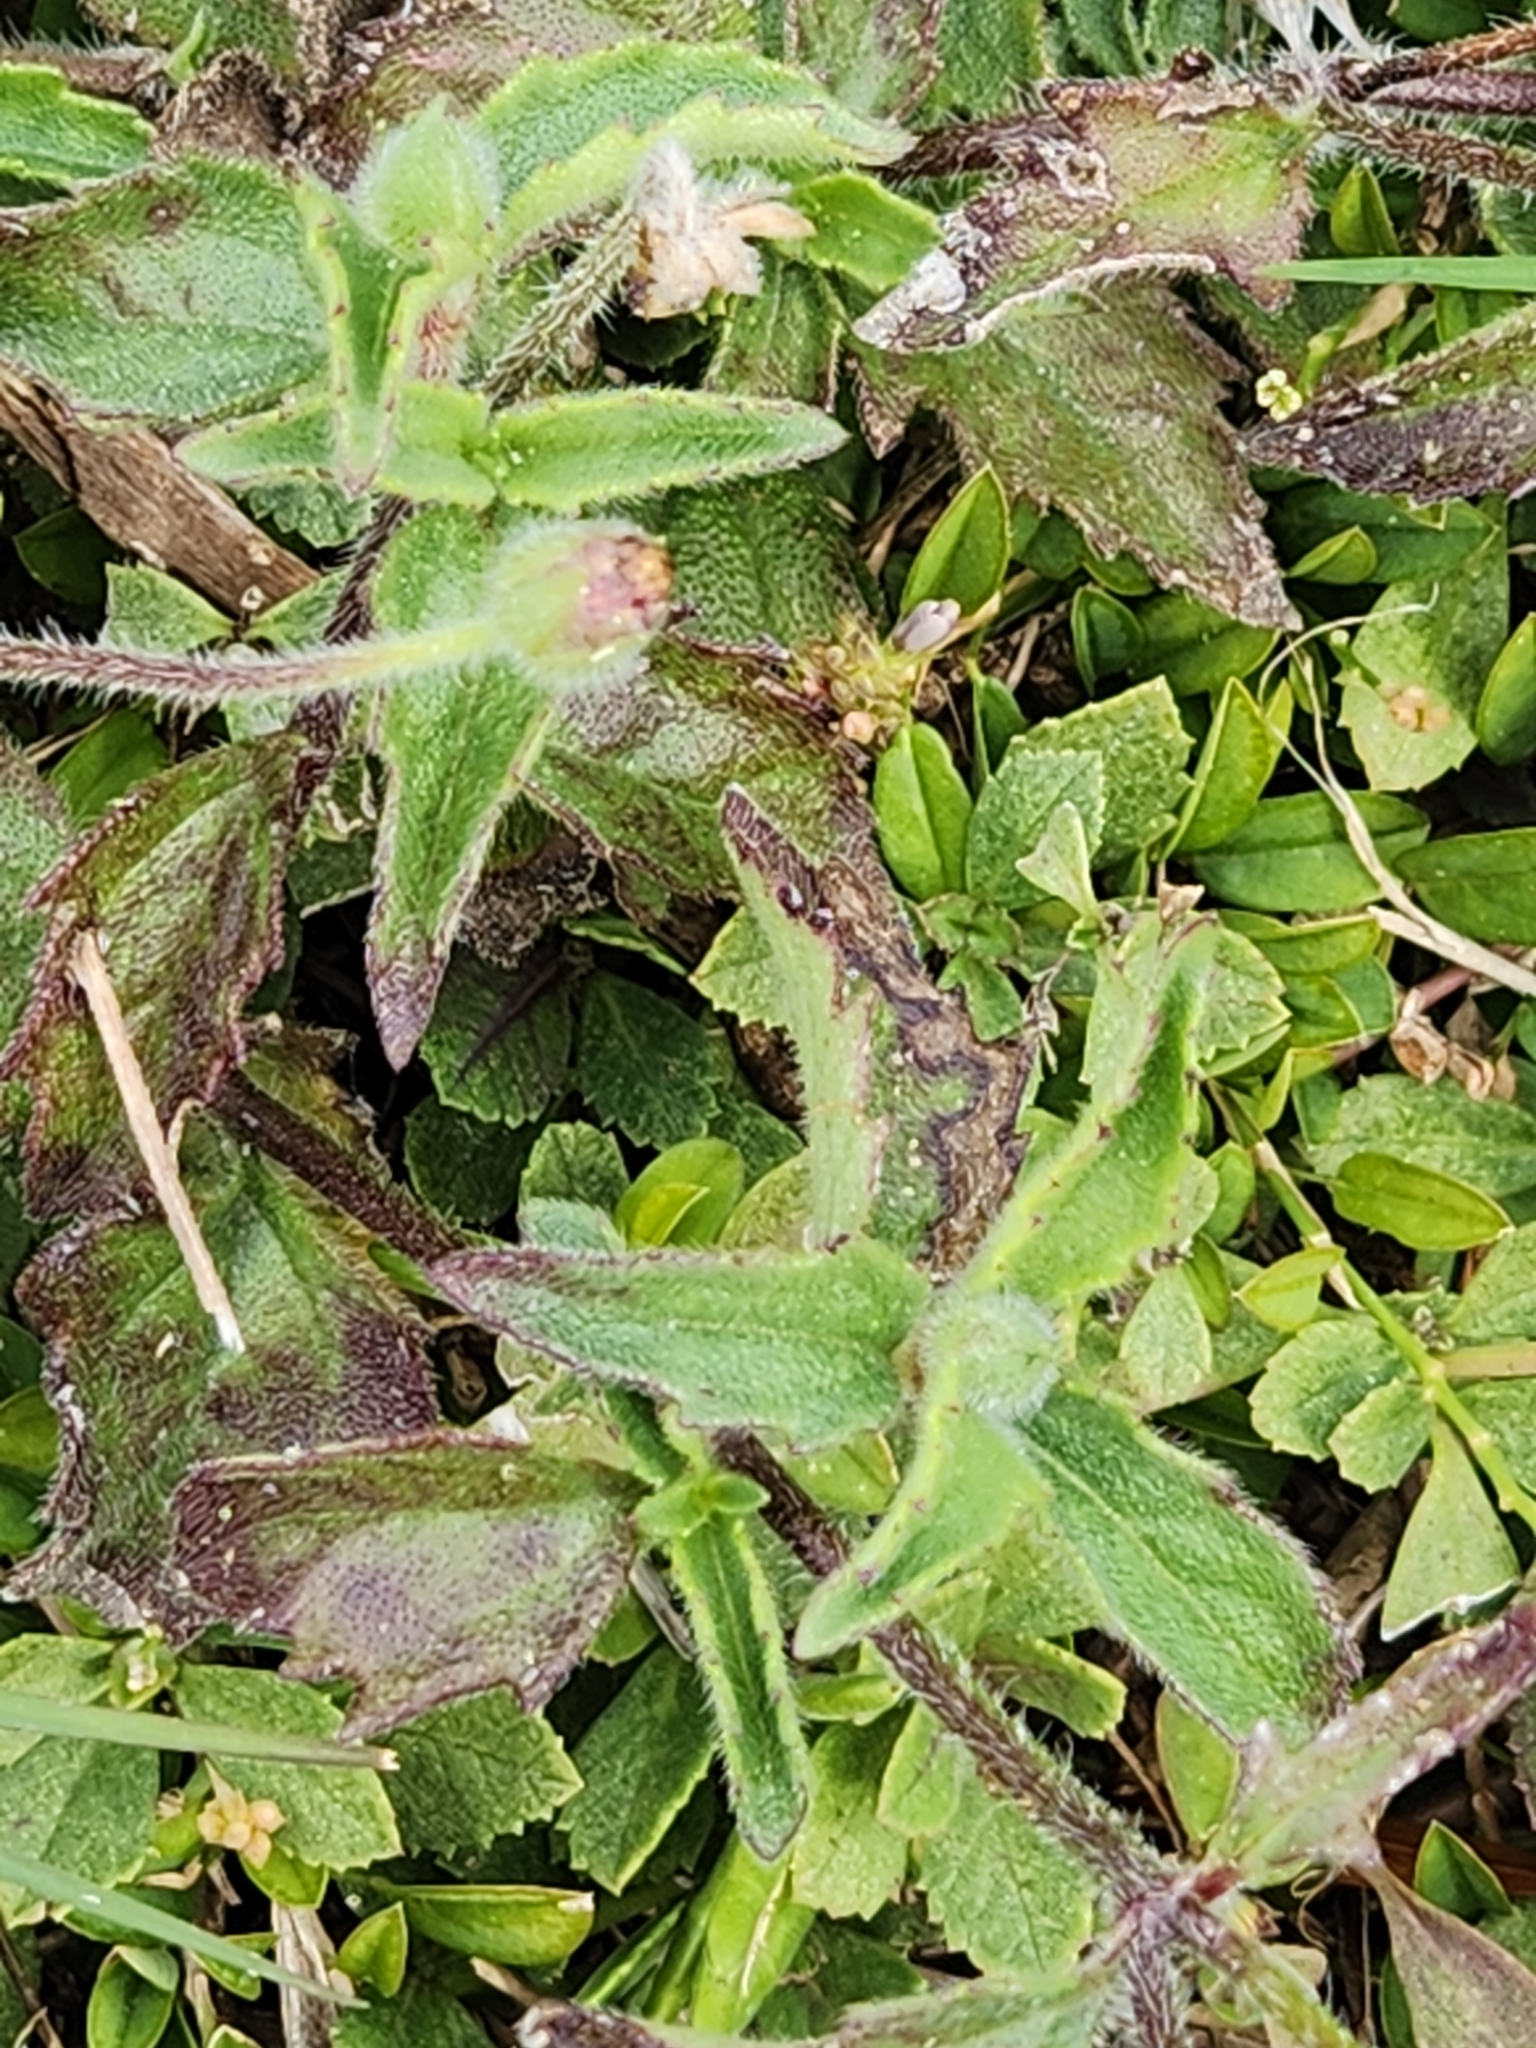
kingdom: Plantae
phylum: Tracheophyta
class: Magnoliopsida
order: Asterales
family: Asteraceae
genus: Tridax
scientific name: Tridax procumbens
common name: Coatbuttons
